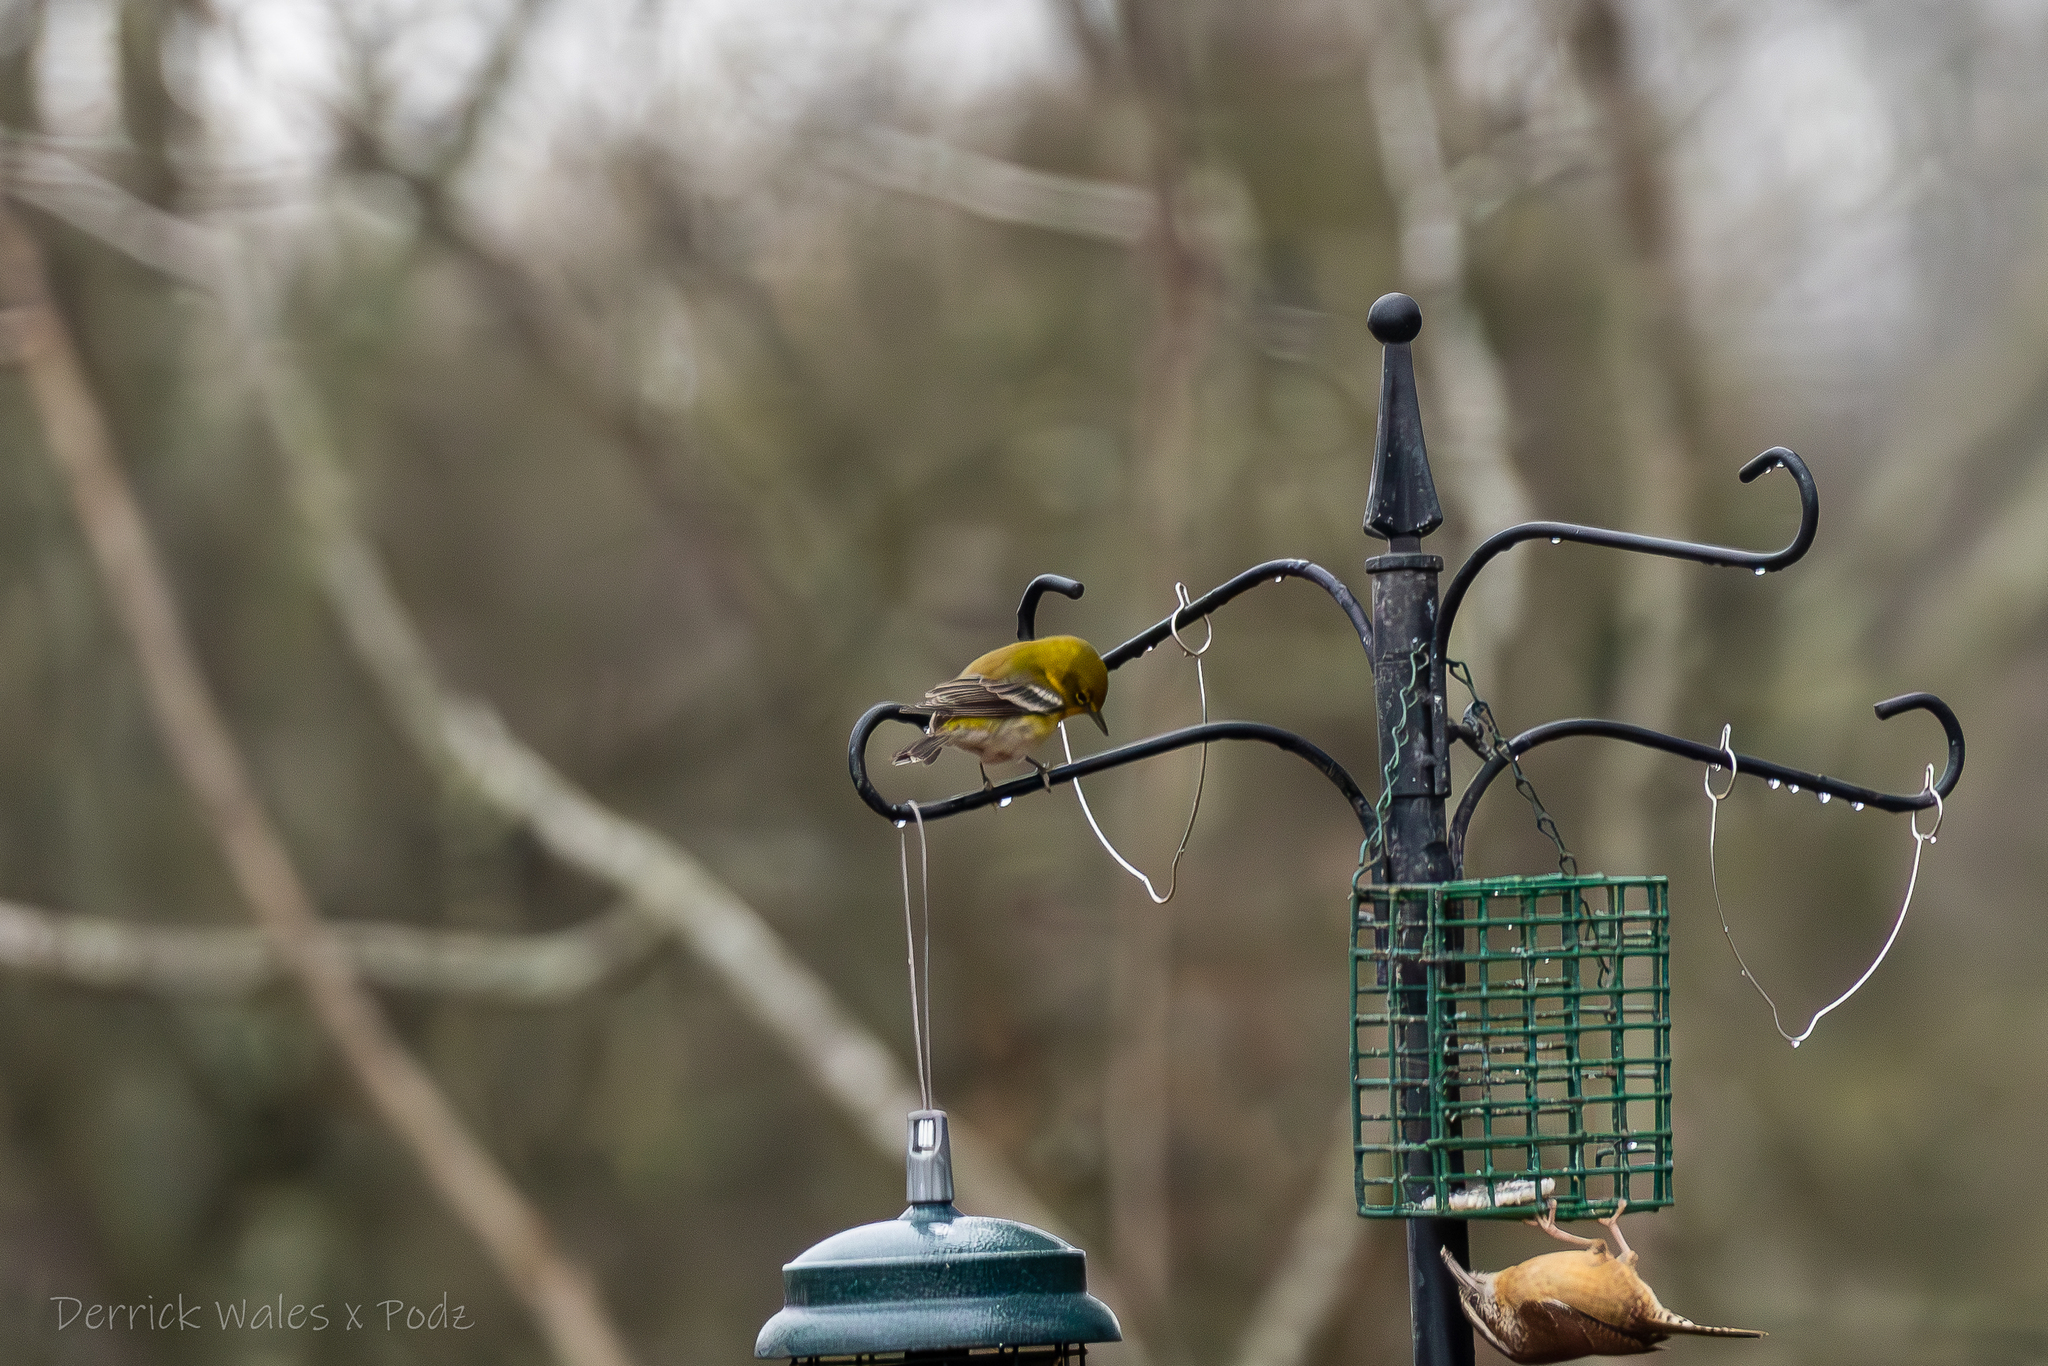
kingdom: Animalia
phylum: Chordata
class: Aves
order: Passeriformes
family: Parulidae
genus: Setophaga
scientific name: Setophaga pinus
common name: Pine warbler
